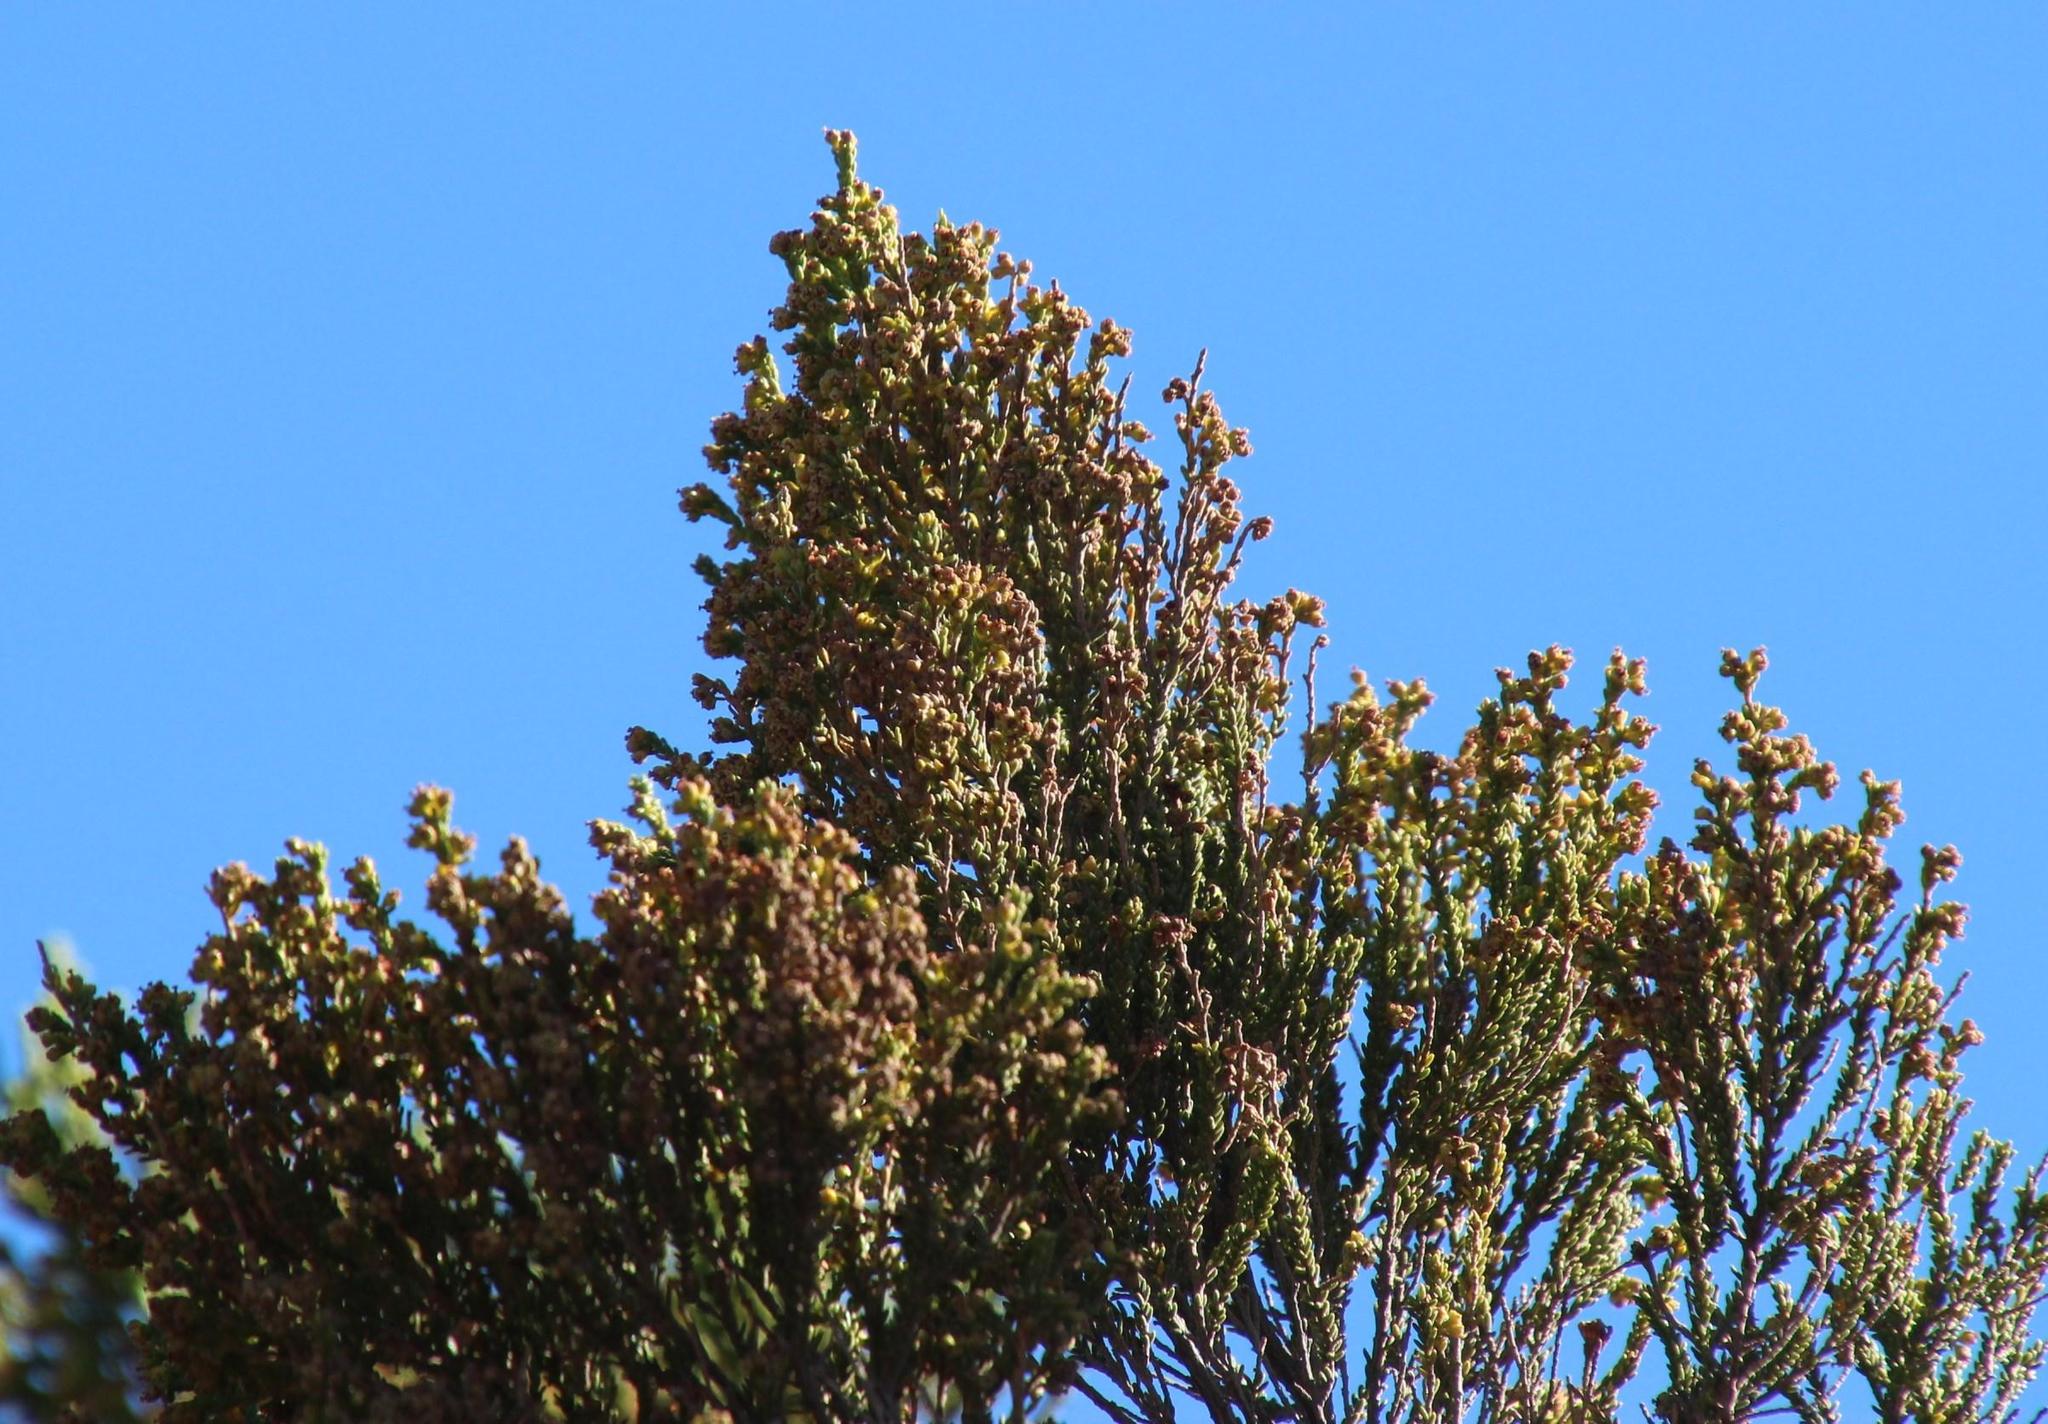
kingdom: Plantae
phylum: Tracheophyta
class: Magnoliopsida
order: Ericales
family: Ericaceae
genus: Erica
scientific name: Erica tristis
